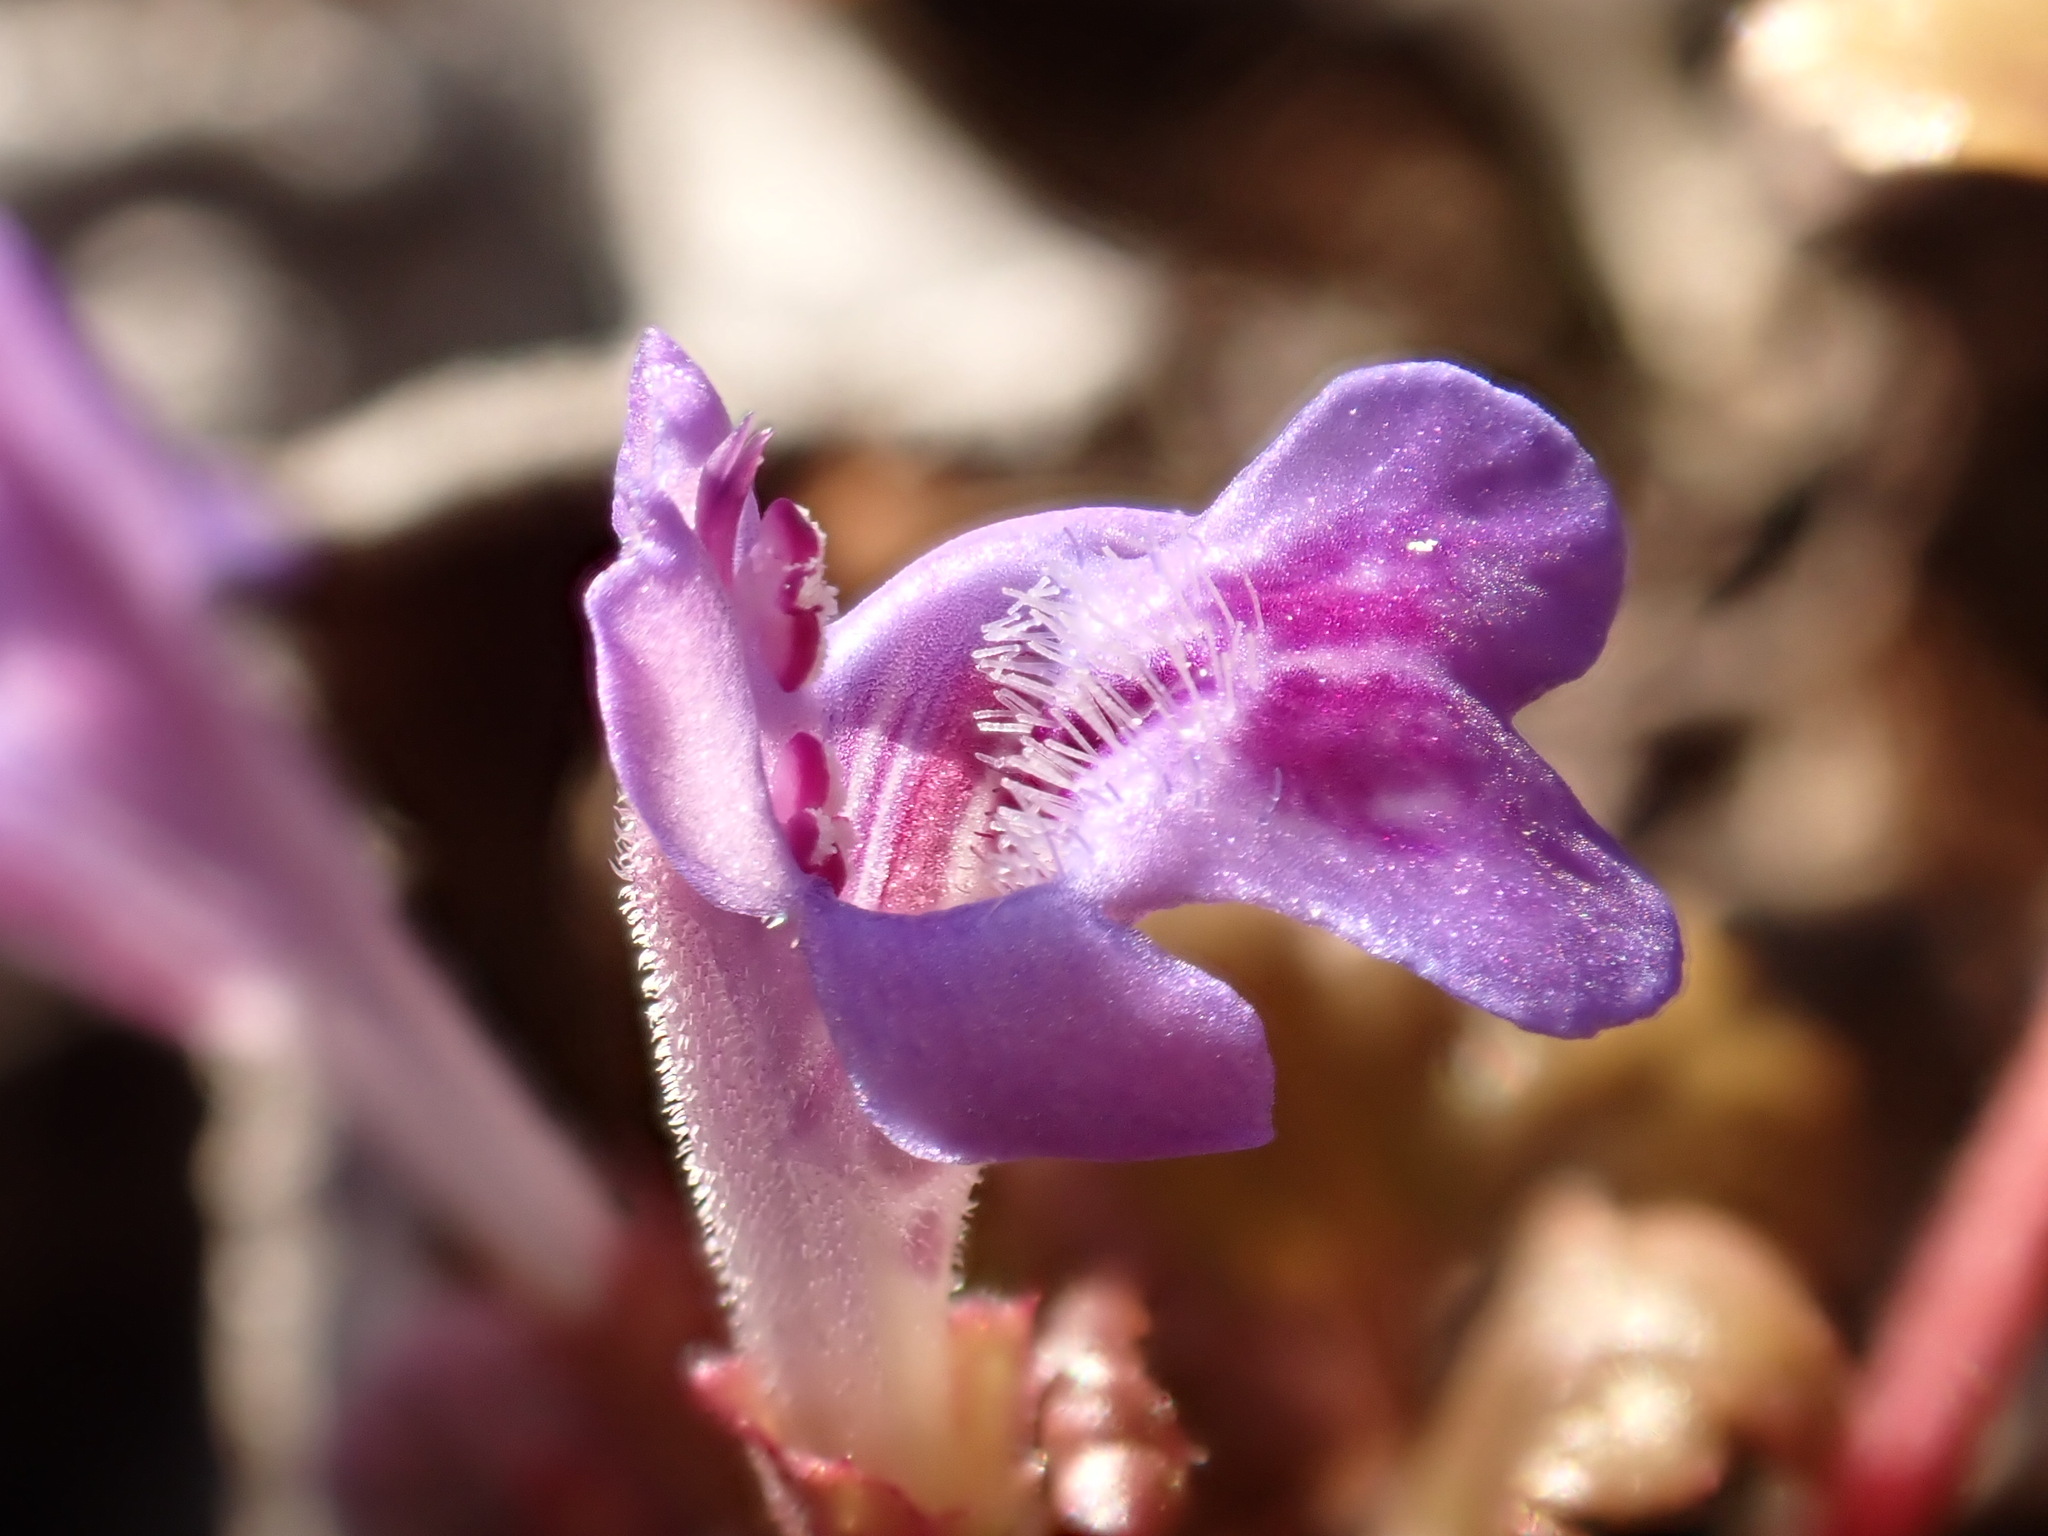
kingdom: Plantae
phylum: Tracheophyta
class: Magnoliopsida
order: Lamiales
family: Lamiaceae
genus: Glechoma
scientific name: Glechoma hederacea
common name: Ground ivy
